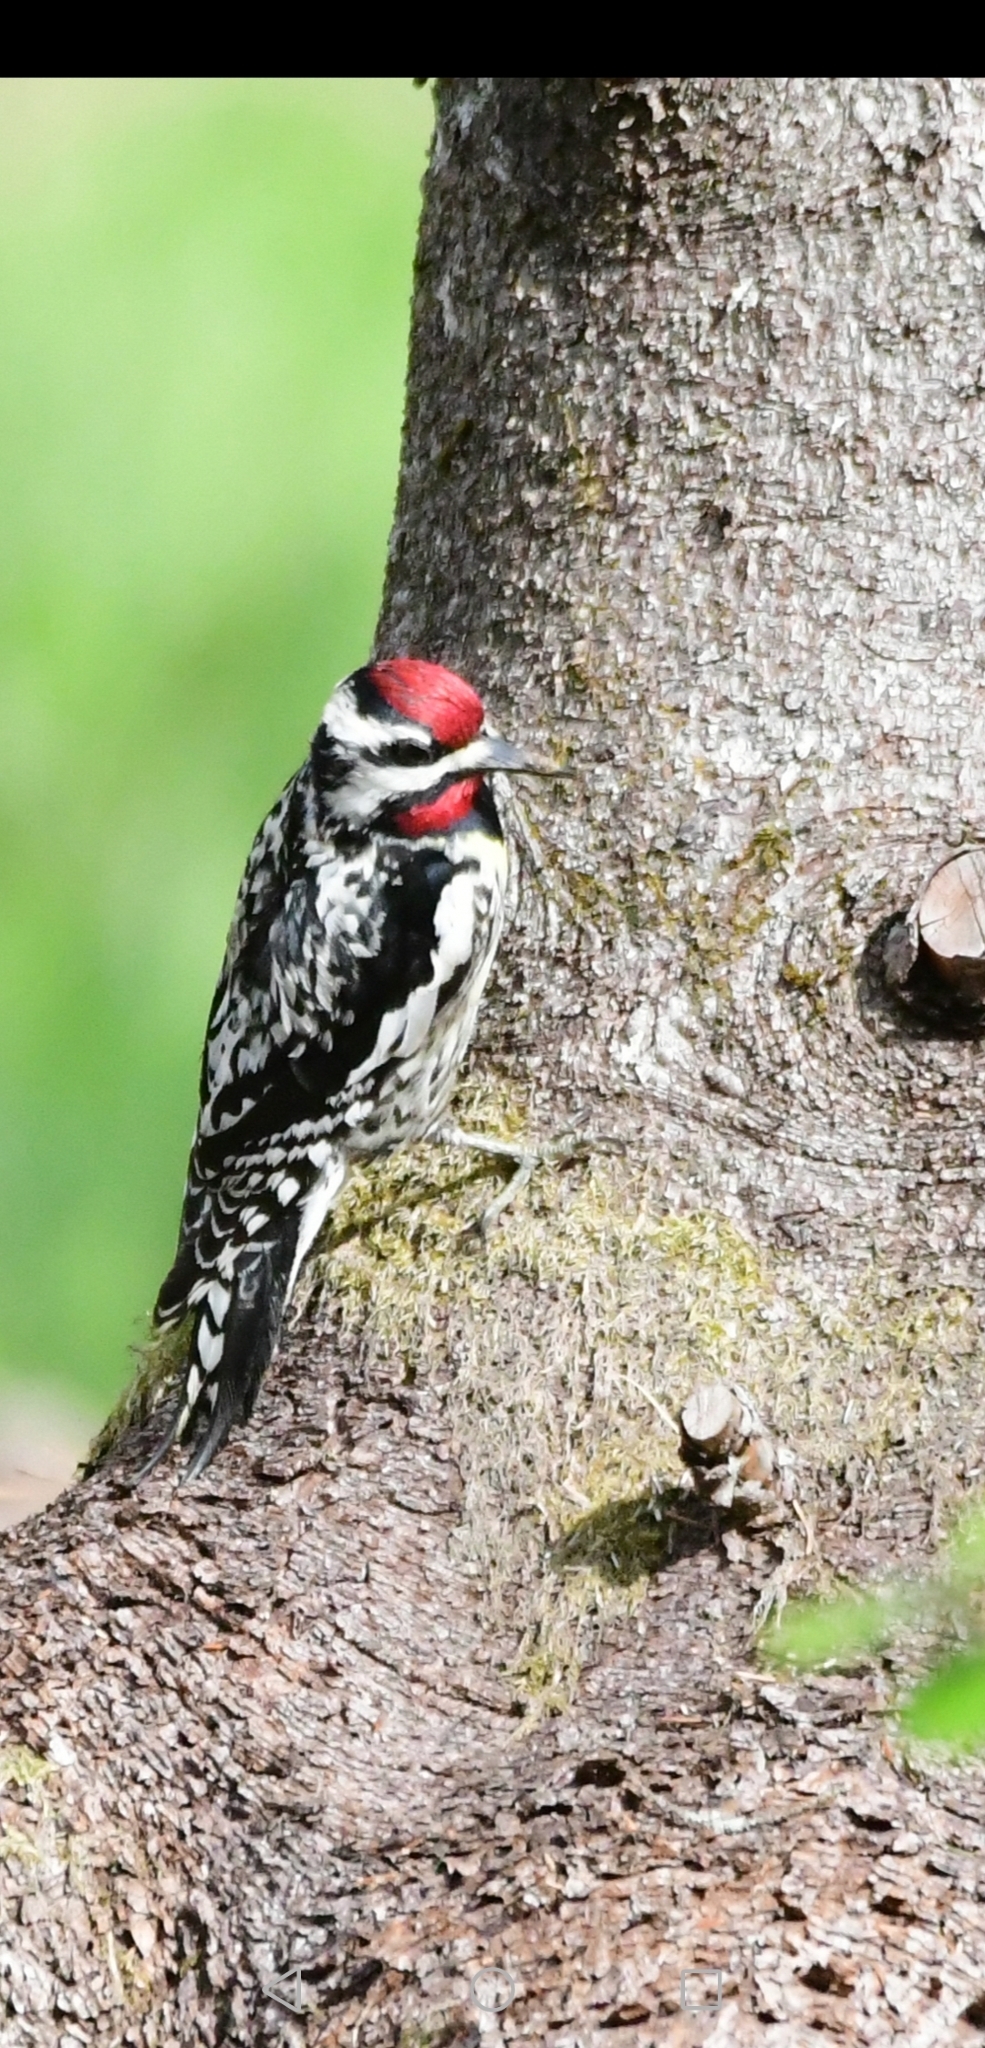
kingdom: Animalia
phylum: Chordata
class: Aves
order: Piciformes
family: Picidae
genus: Sphyrapicus
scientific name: Sphyrapicus varius
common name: Yellow-bellied sapsucker
